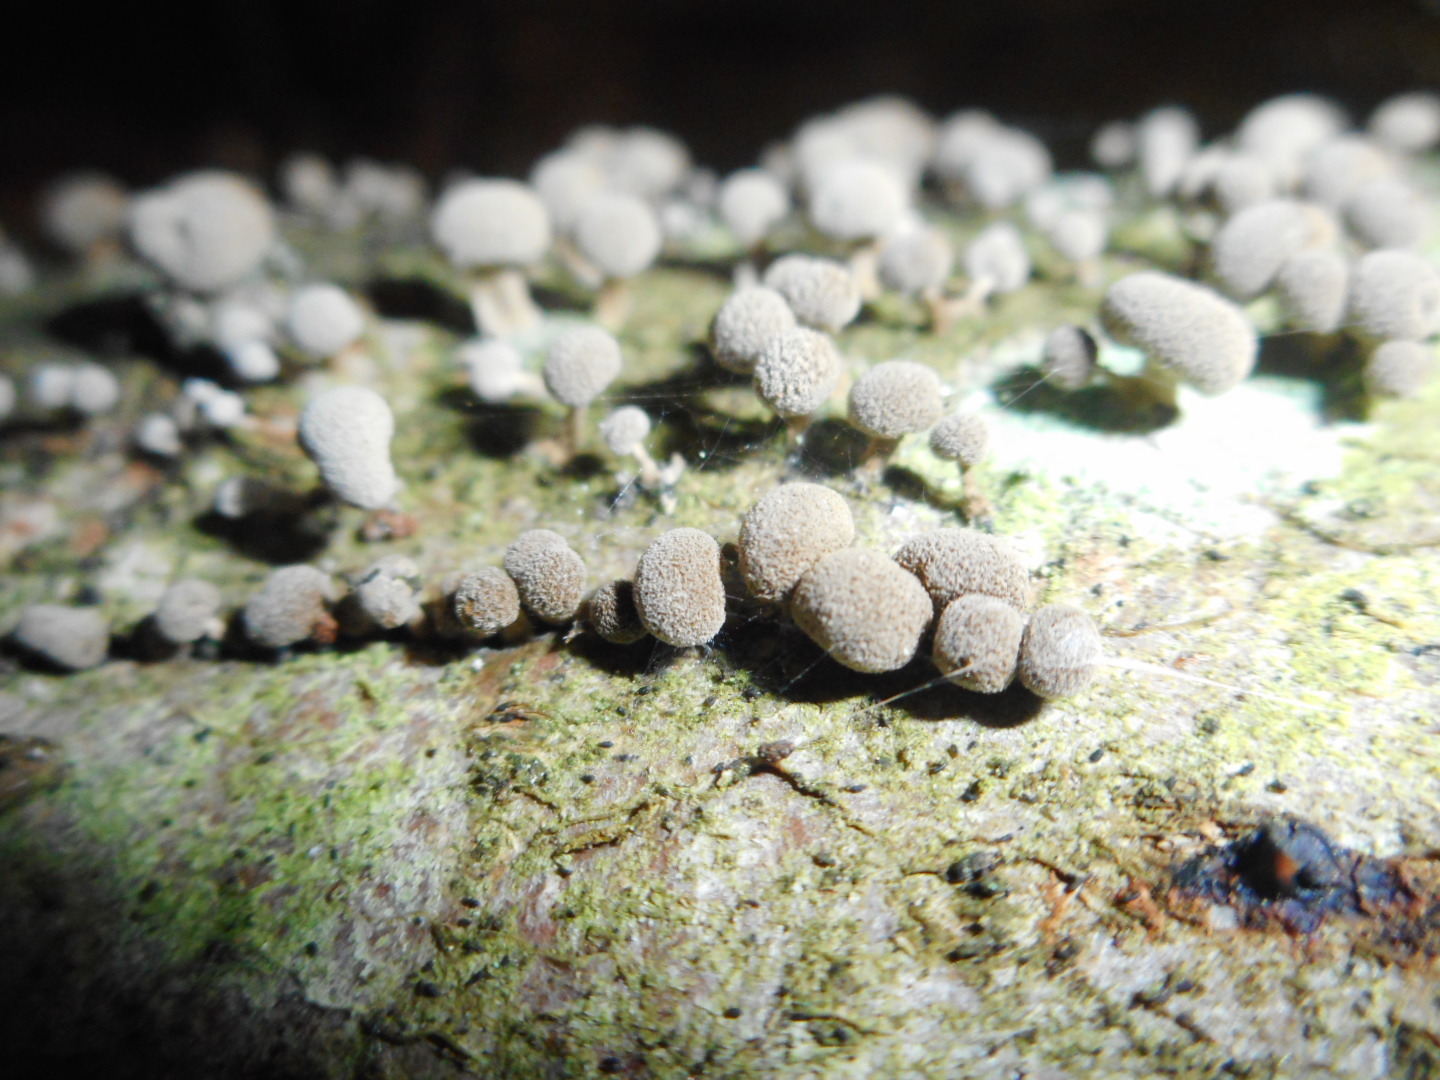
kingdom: Fungi
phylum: Basidiomycota
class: Atractiellomycetes
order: Atractiellales
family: Phleogenaceae
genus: Phleogena
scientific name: Phleogena faginea
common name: Fenugreek stalkball
